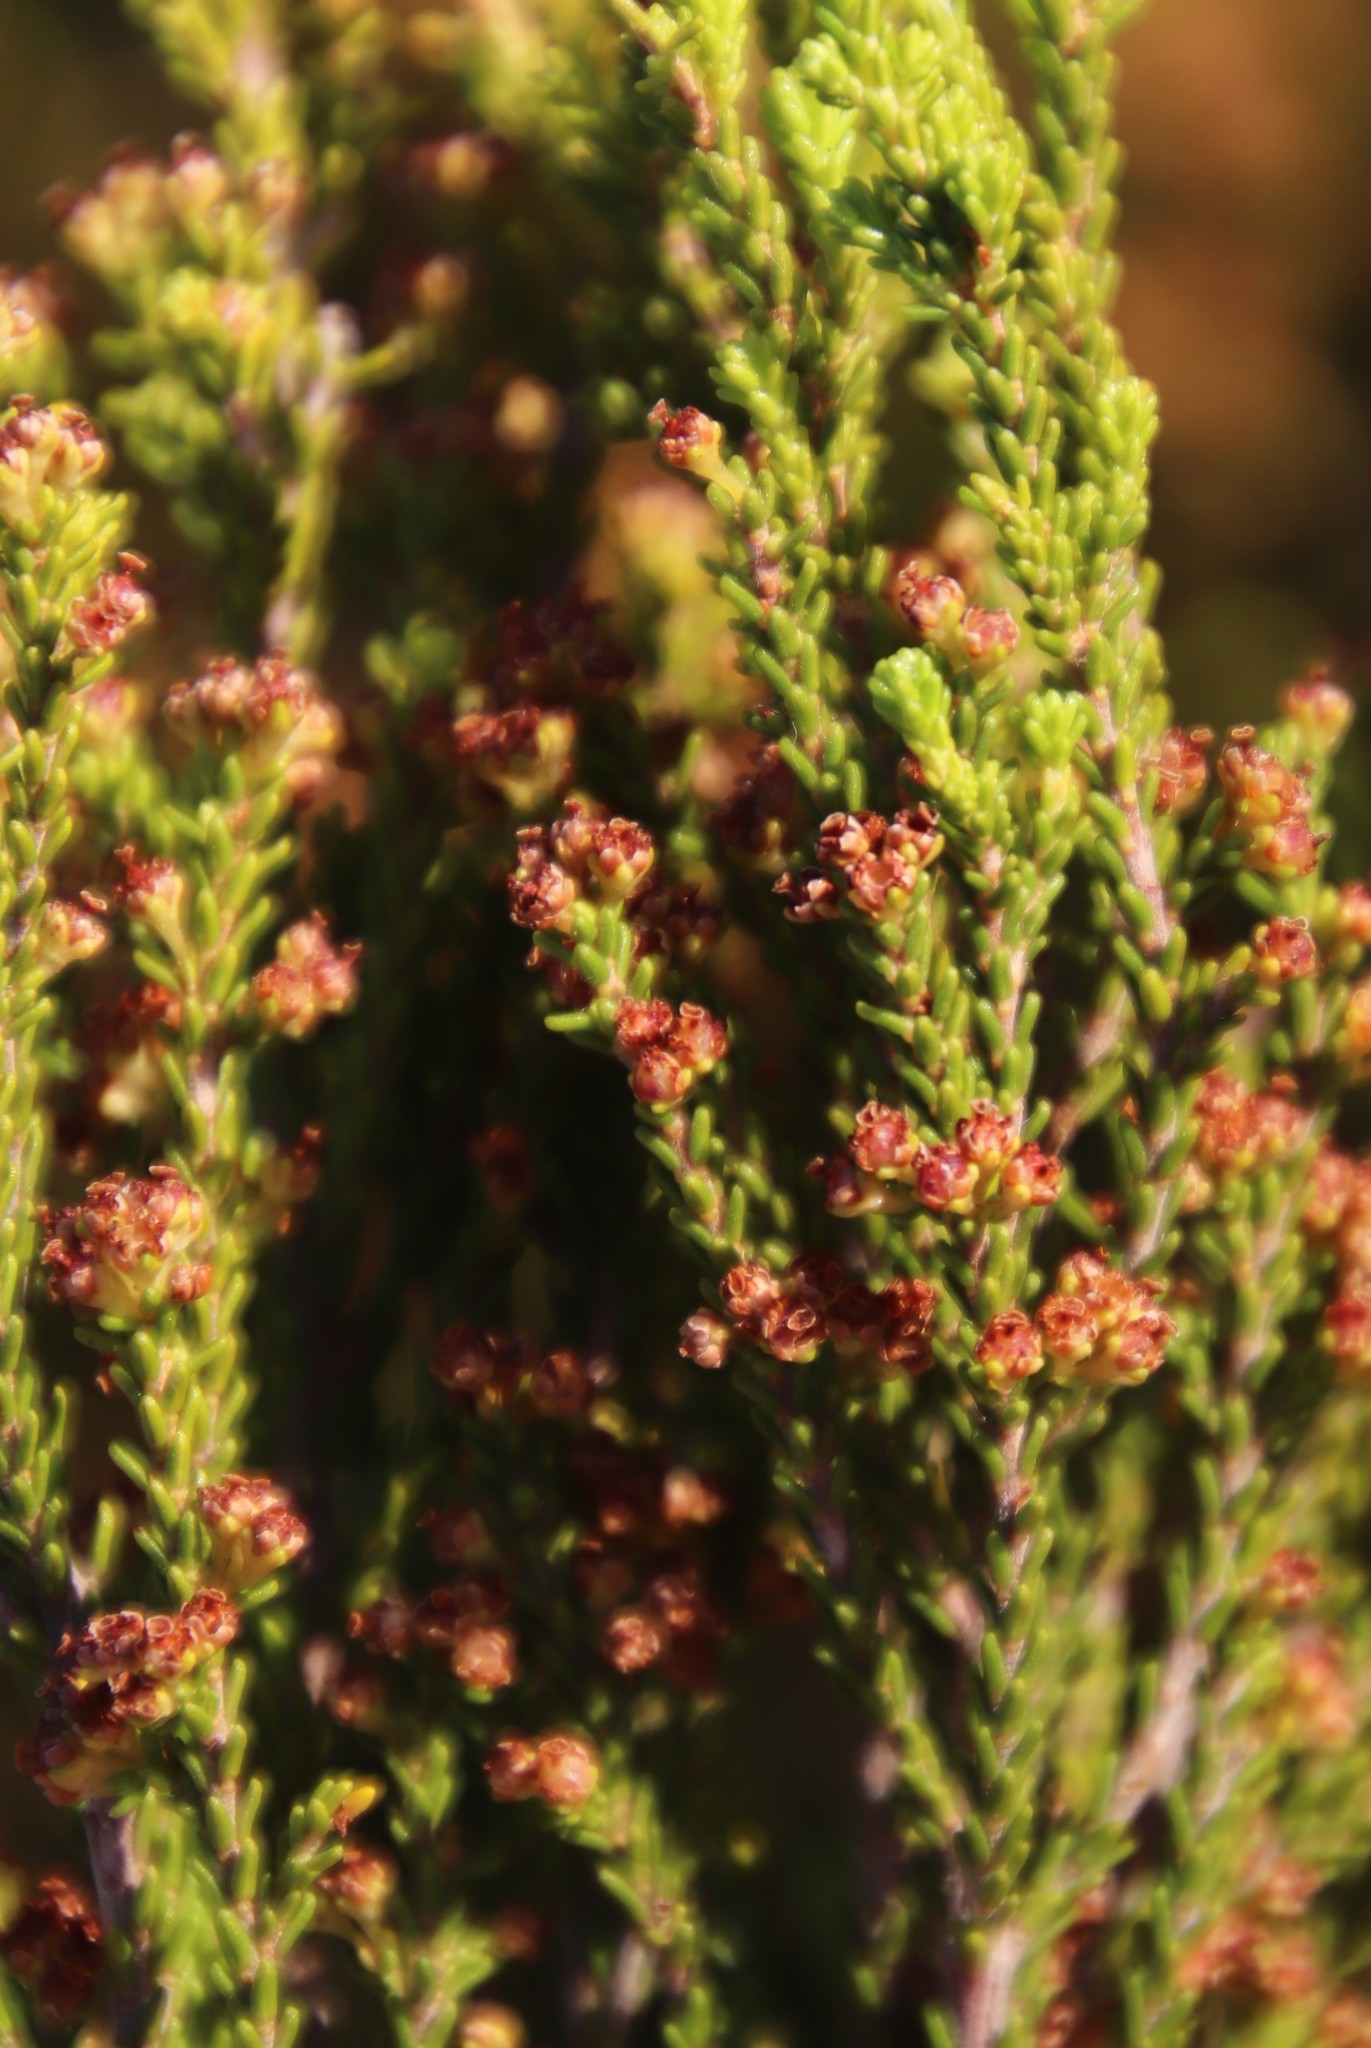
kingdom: Plantae
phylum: Tracheophyta
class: Magnoliopsida
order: Ericales
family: Ericaceae
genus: Erica
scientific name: Erica tristis
